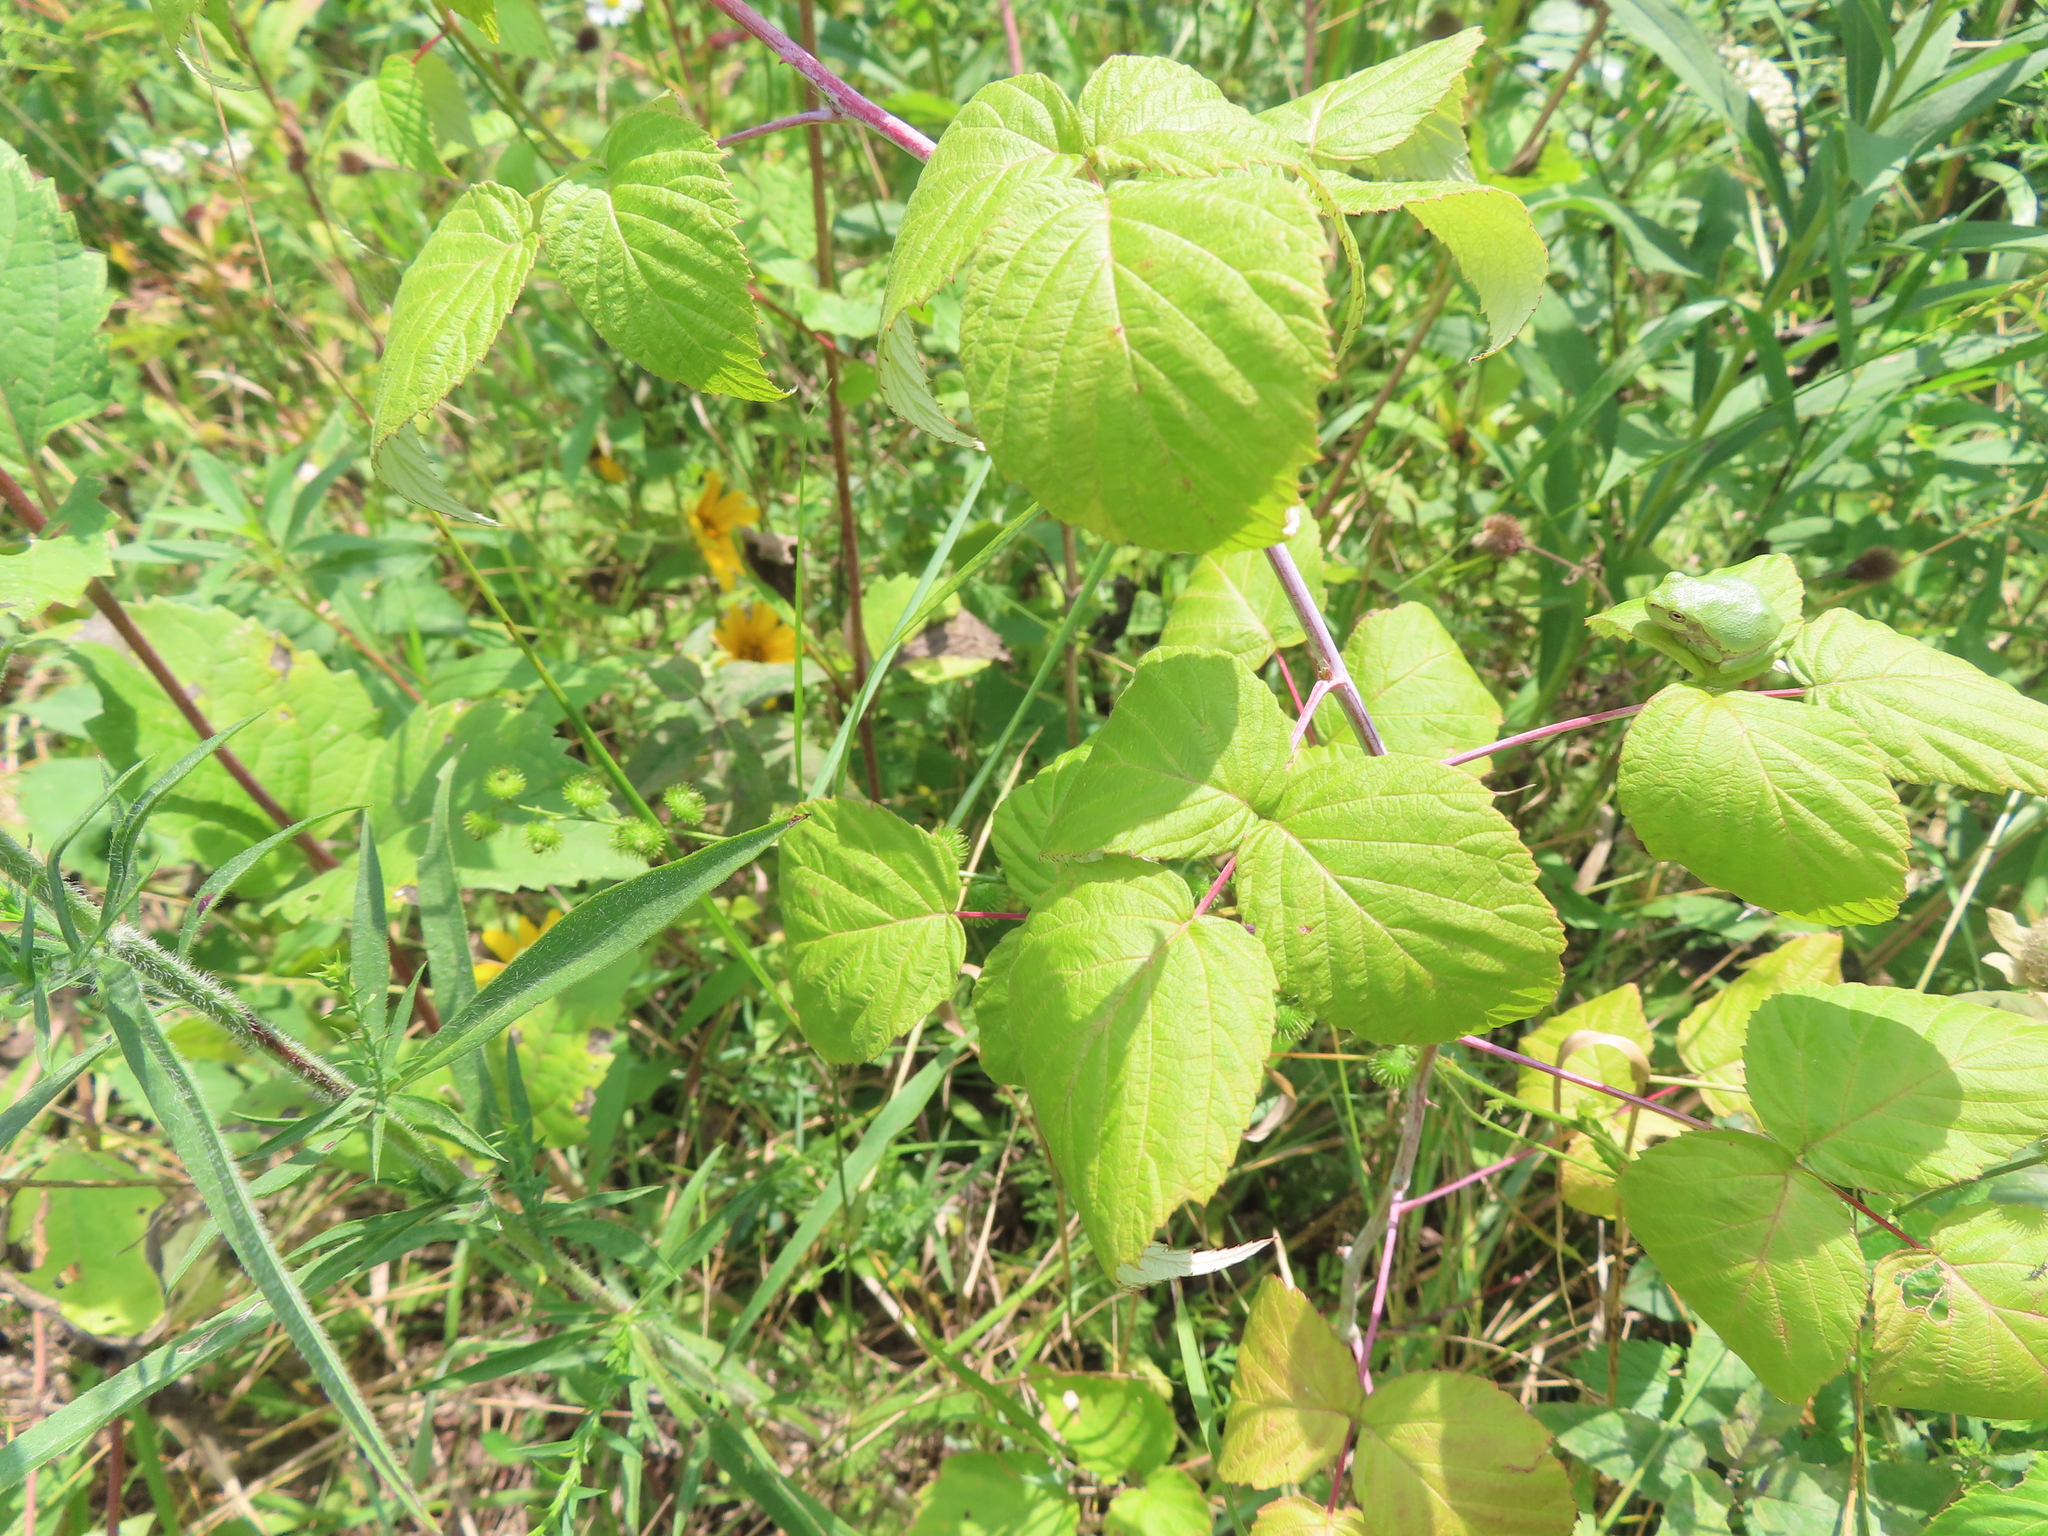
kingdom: Plantae
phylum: Tracheophyta
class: Magnoliopsida
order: Rosales
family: Rosaceae
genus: Rubus
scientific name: Rubus occidentalis
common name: Black raspberry
